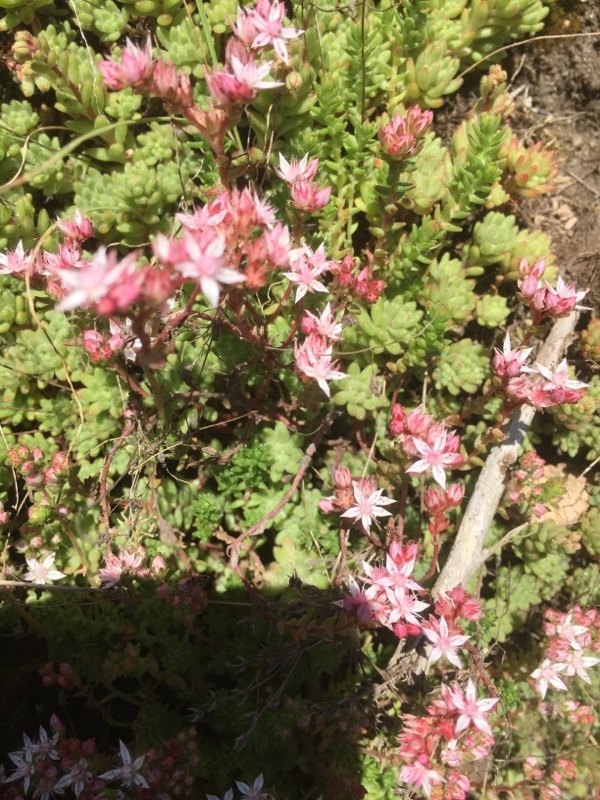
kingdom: Plantae
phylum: Tracheophyta
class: Magnoliopsida
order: Saxifragales
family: Crassulaceae
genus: Sedum
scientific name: Sedum hirsutum
